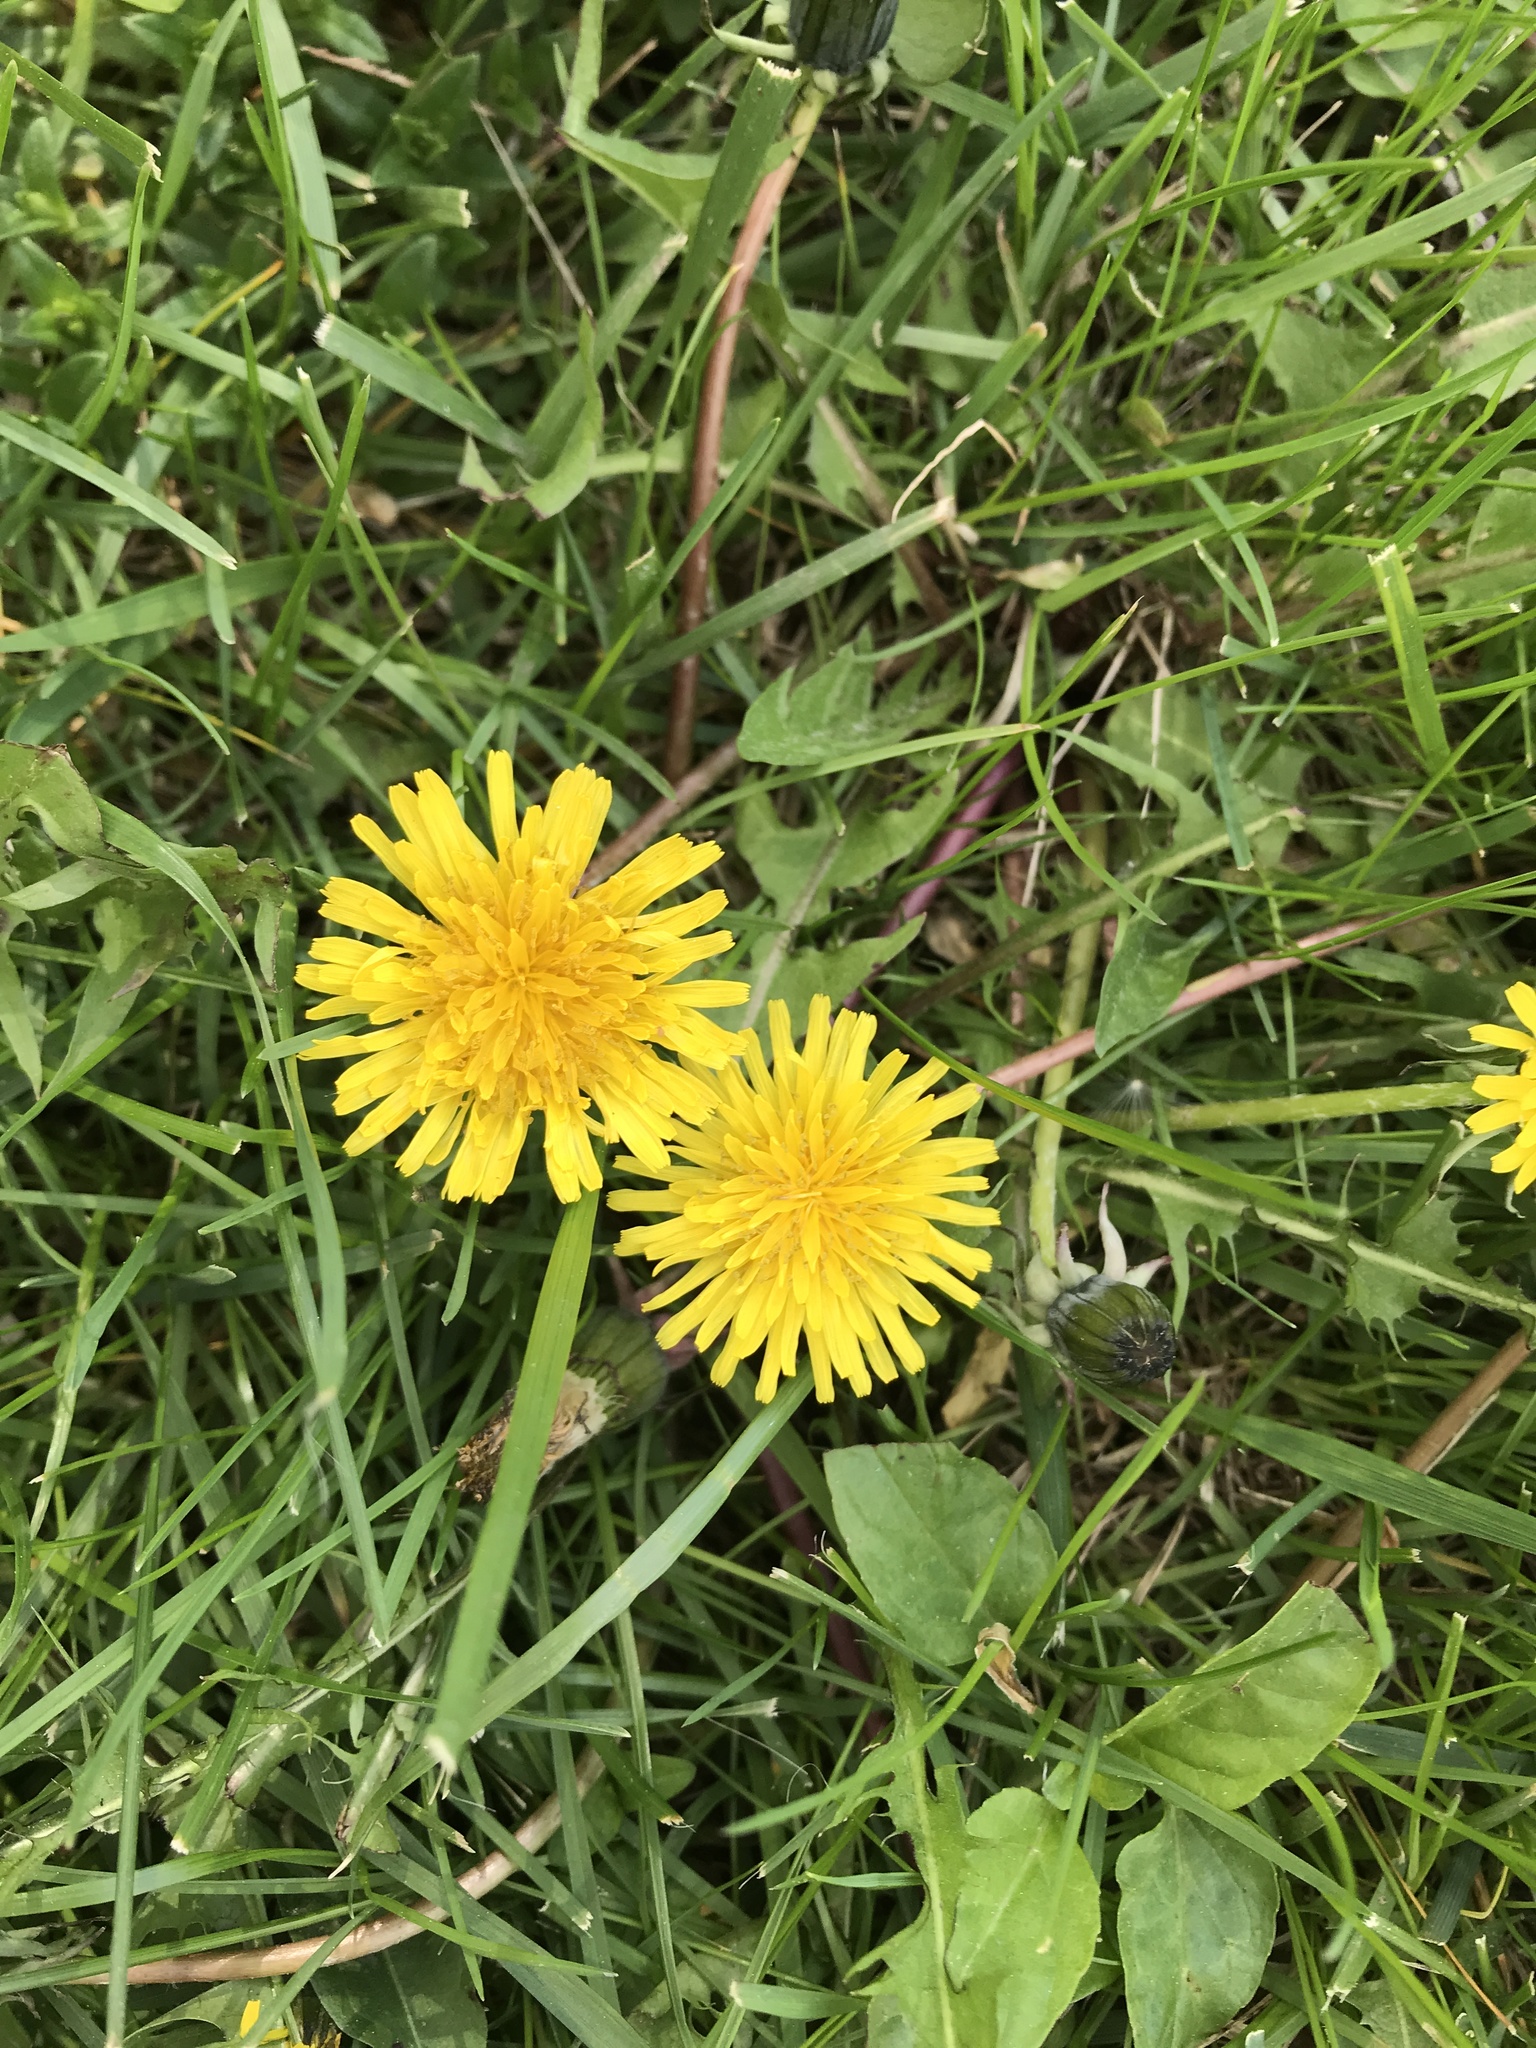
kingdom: Plantae
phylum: Tracheophyta
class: Magnoliopsida
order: Asterales
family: Asteraceae
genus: Taraxacum
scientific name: Taraxacum officinale
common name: Common dandelion
